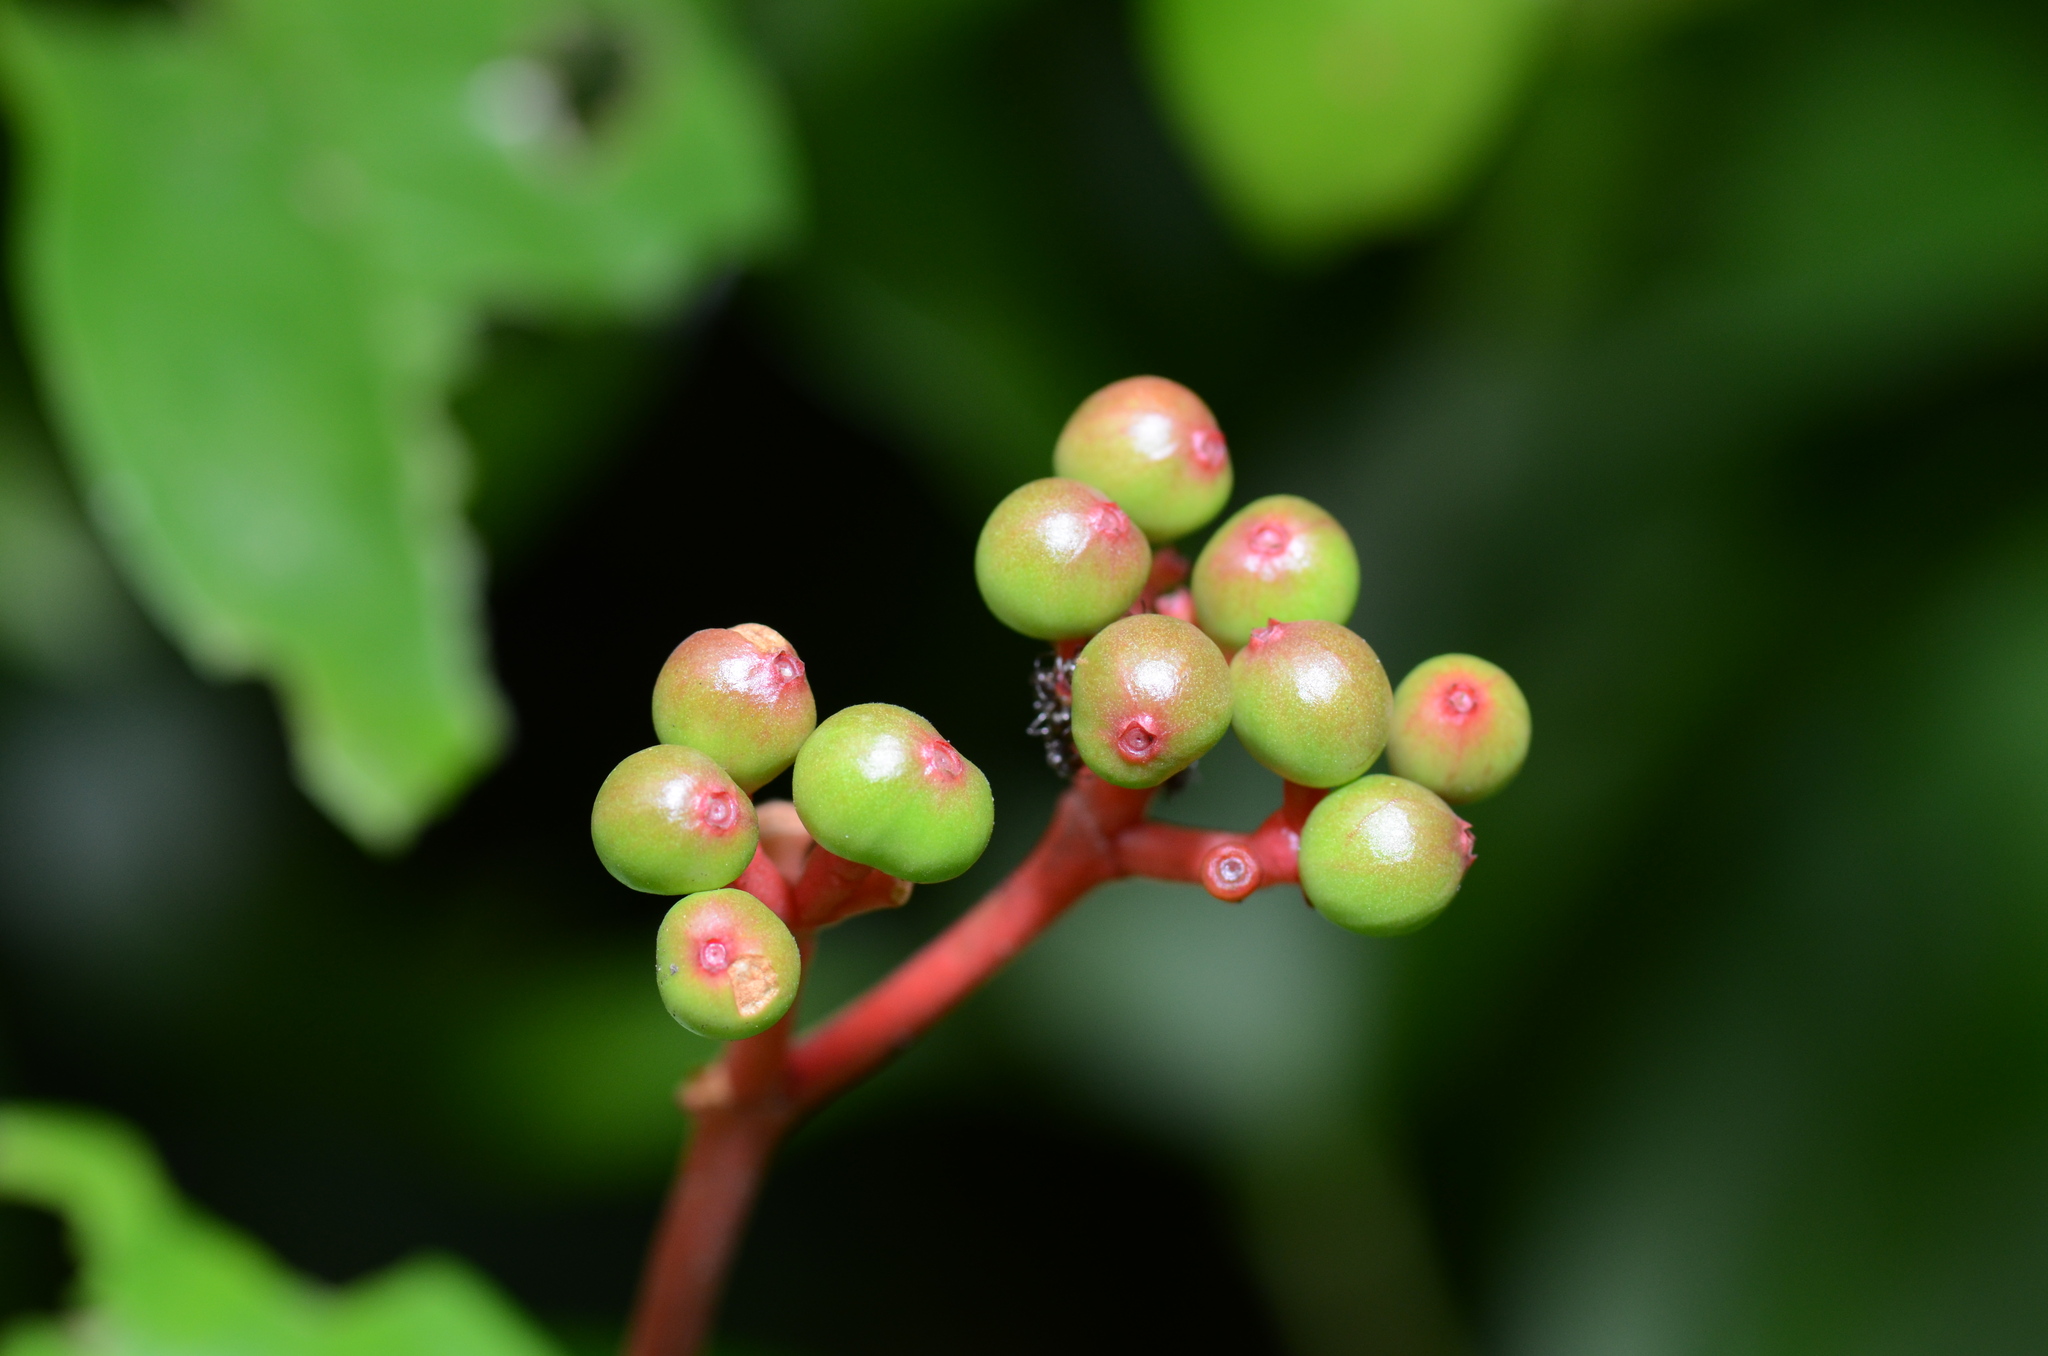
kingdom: Plantae
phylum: Tracheophyta
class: Magnoliopsida
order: Gentianales
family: Rubiaceae
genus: Ixora
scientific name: Ixora congesta
